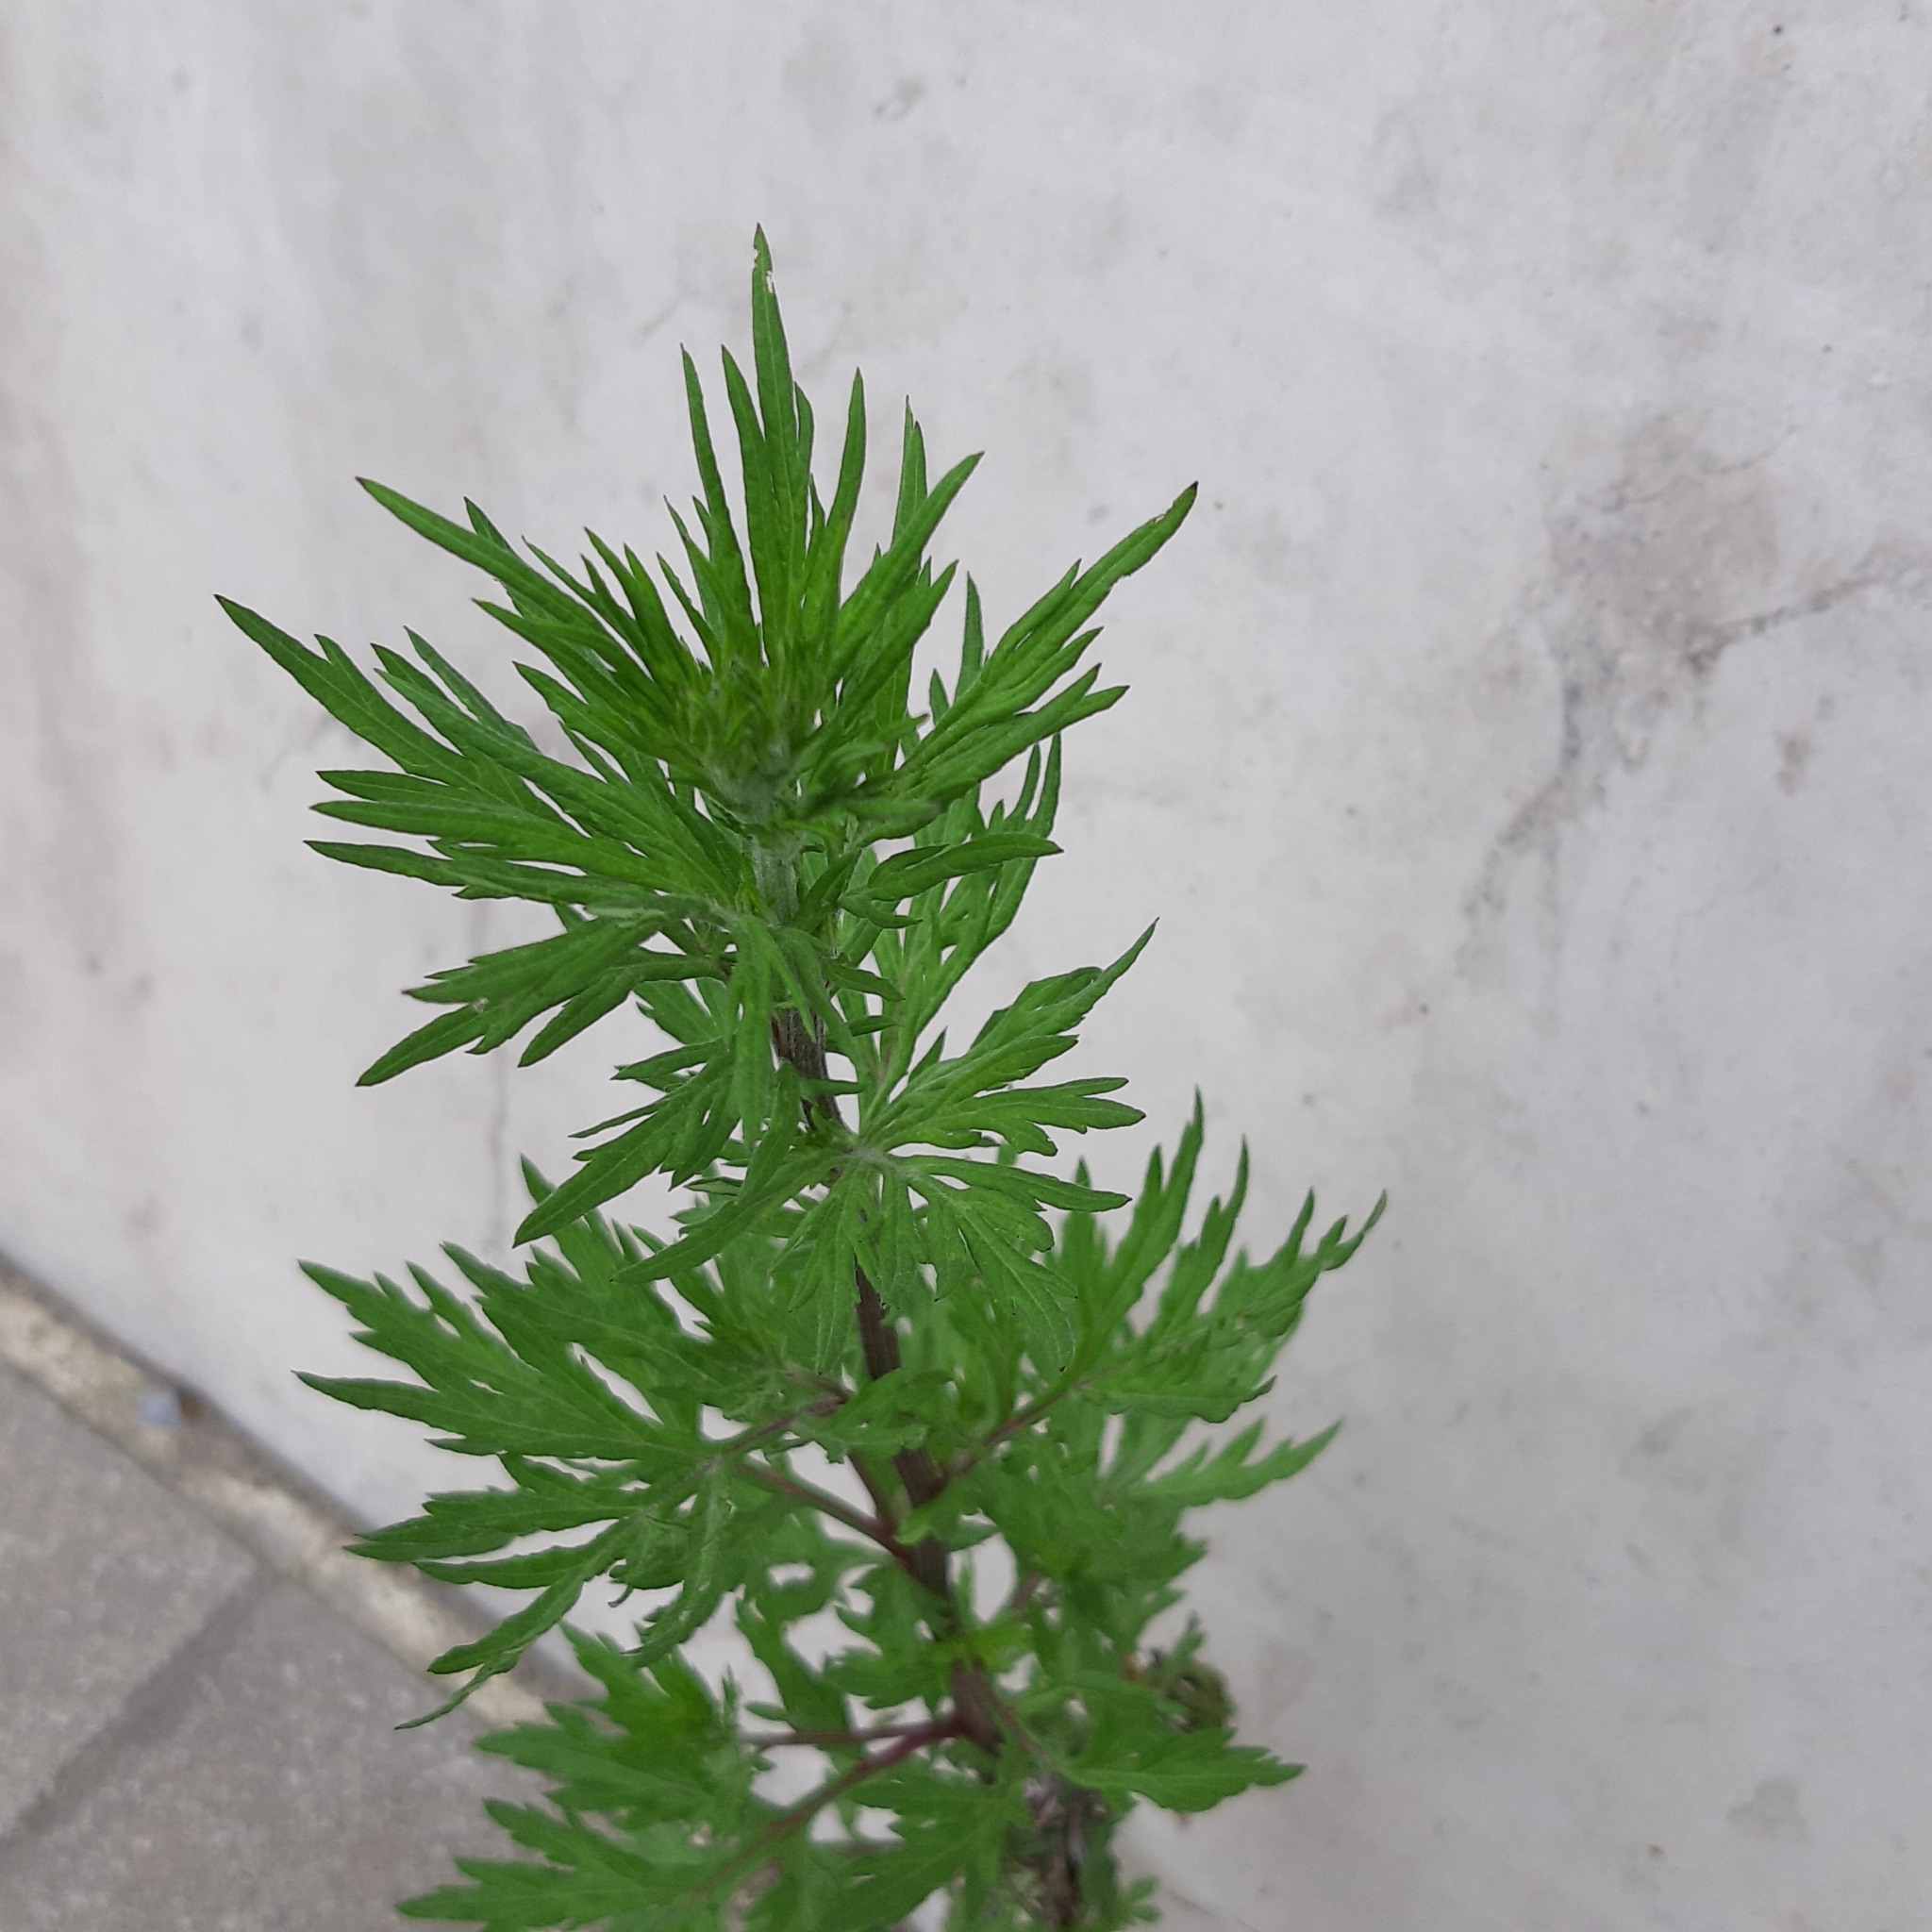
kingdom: Plantae
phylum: Tracheophyta
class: Magnoliopsida
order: Asterales
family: Asteraceae
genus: Artemisia
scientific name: Artemisia vulgaris
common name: Mugwort
